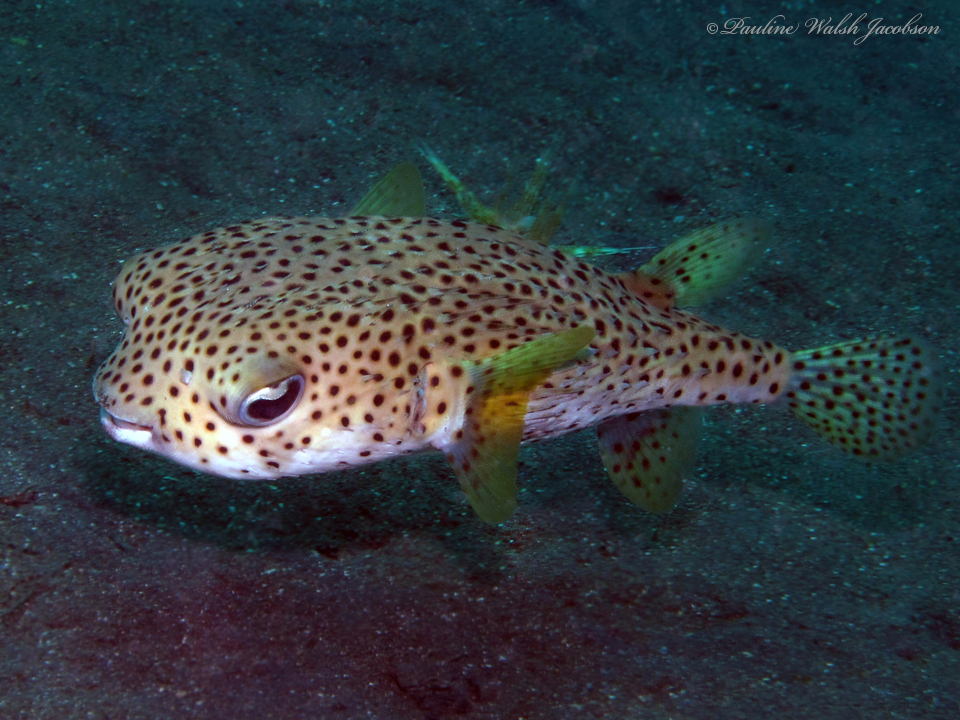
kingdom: Animalia
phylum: Chordata
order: Tetraodontiformes
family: Diodontidae
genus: Diodon
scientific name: Diodon hystrix
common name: Giant porcupinefish
